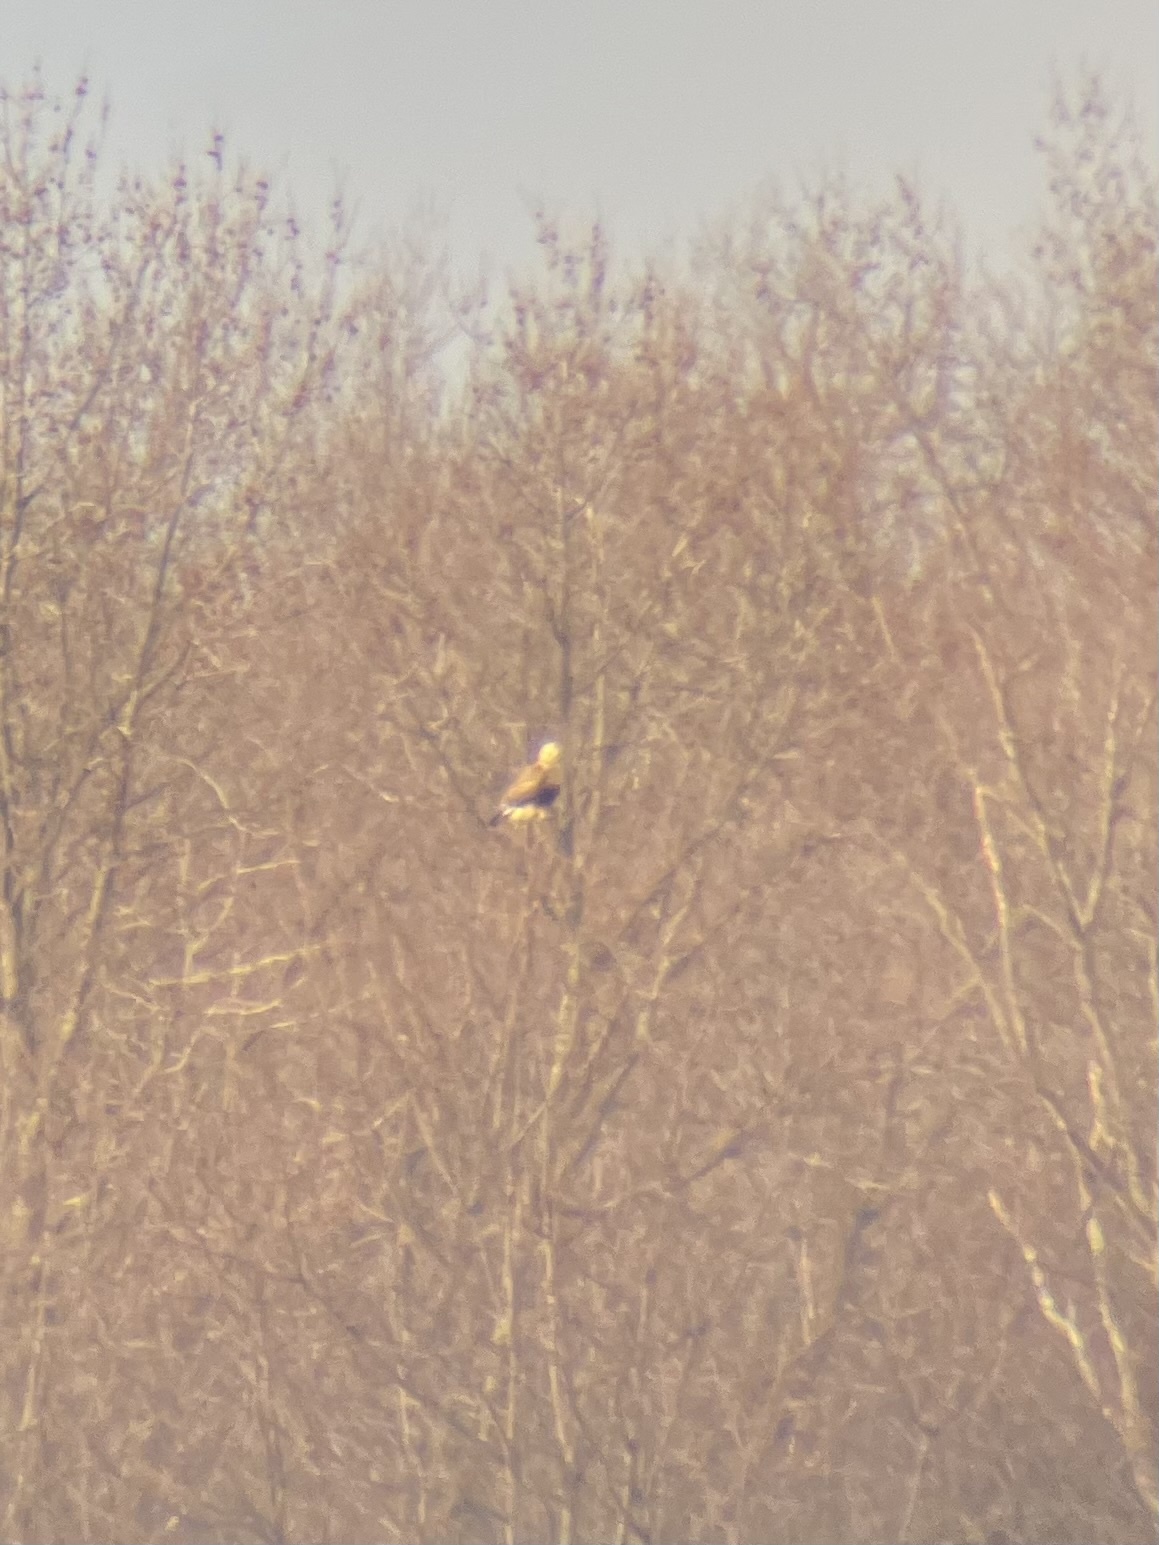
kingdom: Animalia
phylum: Chordata
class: Aves
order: Accipitriformes
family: Accipitridae
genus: Buteo
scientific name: Buteo lagopus
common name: Rough-legged buzzard
